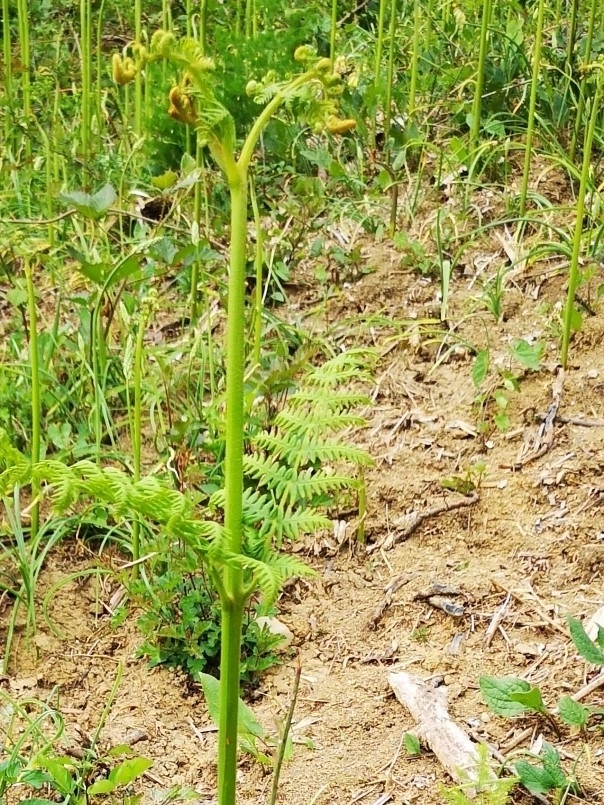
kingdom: Plantae
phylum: Tracheophyta
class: Polypodiopsida
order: Polypodiales
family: Dennstaedtiaceae
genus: Pteridium
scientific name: Pteridium aquilinum
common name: Bracken
